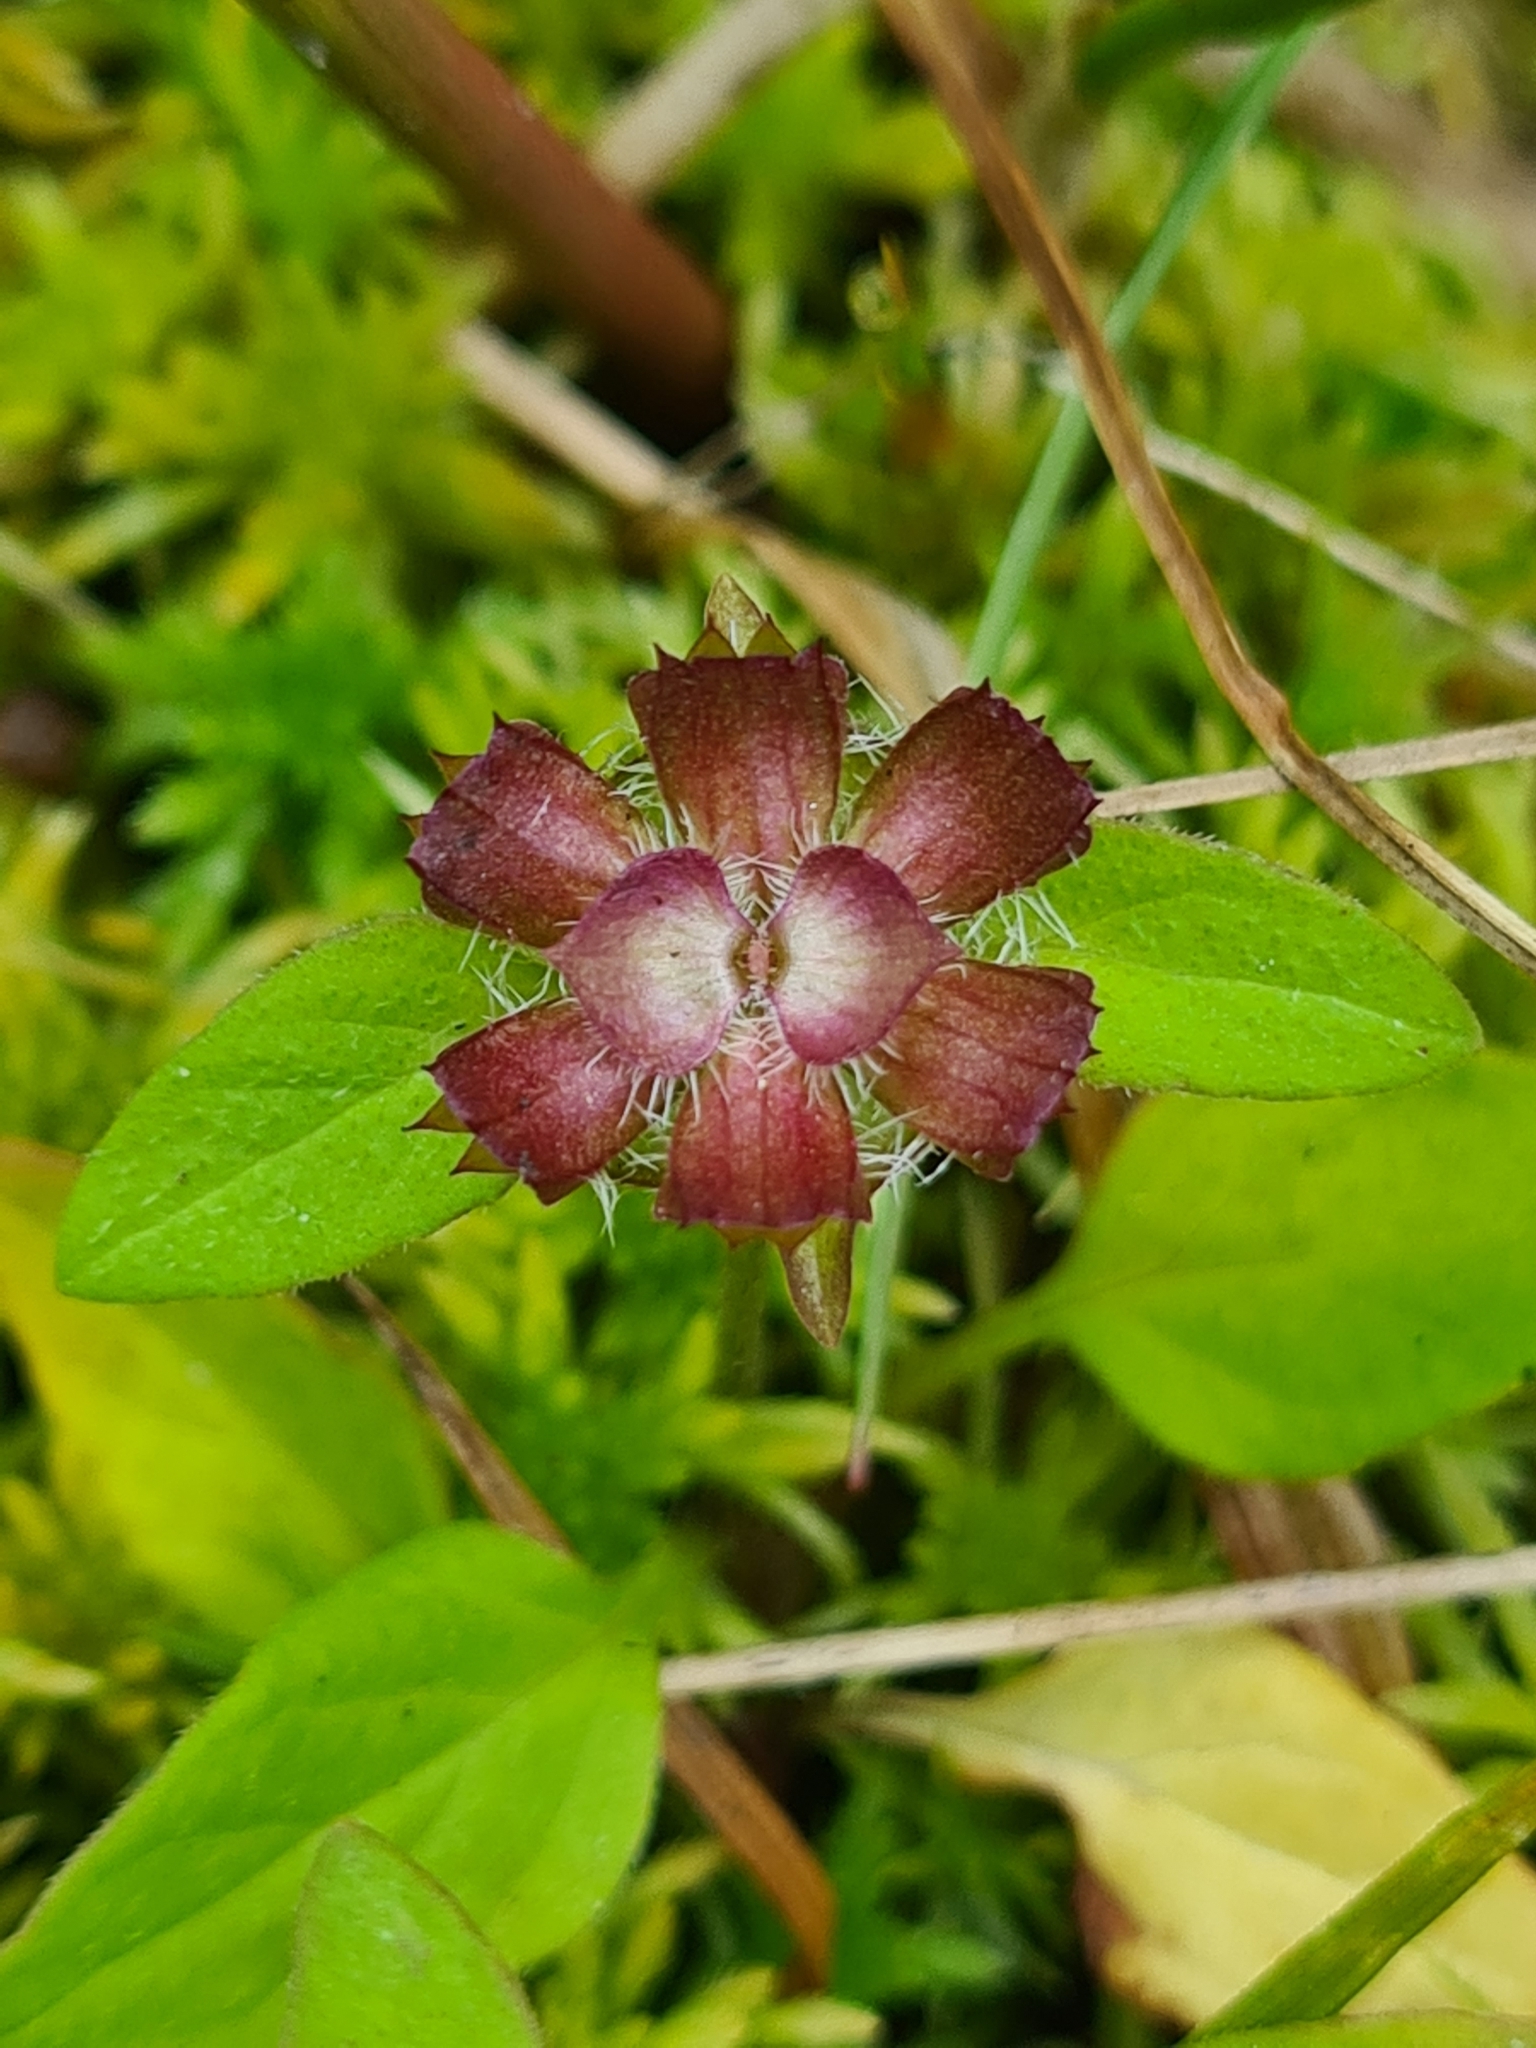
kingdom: Plantae
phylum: Tracheophyta
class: Magnoliopsida
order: Lamiales
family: Lamiaceae
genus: Prunella
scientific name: Prunella vulgaris
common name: Heal-all
